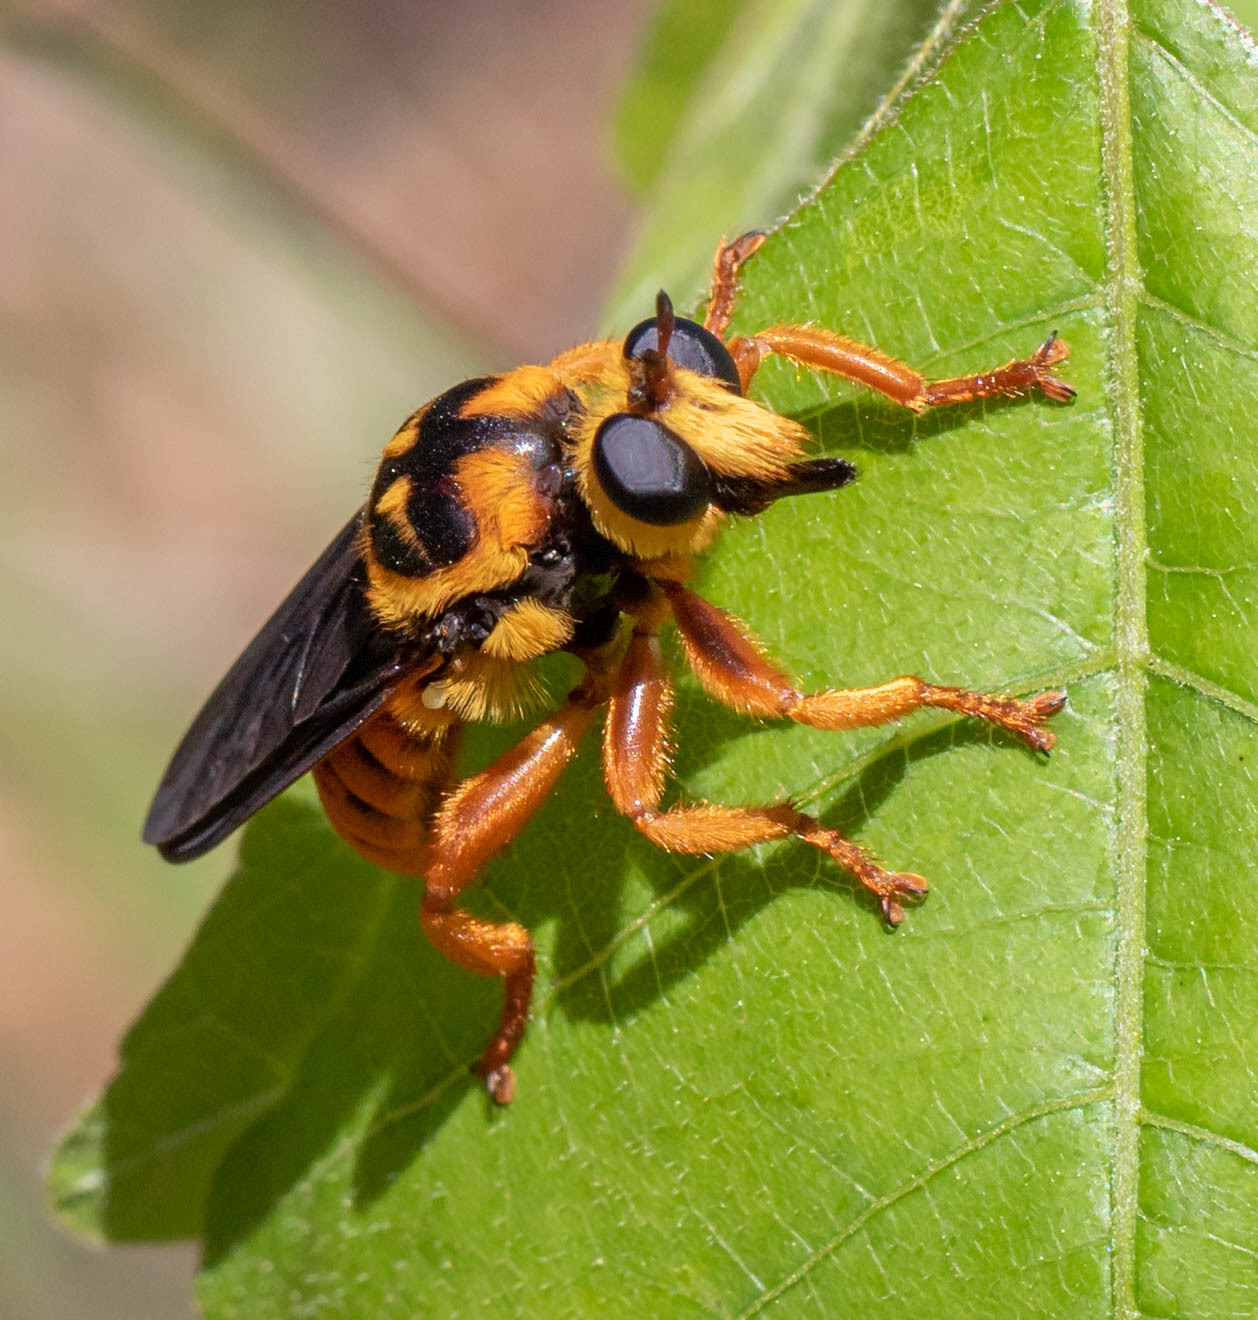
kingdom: Animalia
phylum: Arthropoda
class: Insecta
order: Diptera
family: Asilidae
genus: Laphria
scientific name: Laphria saffrana
